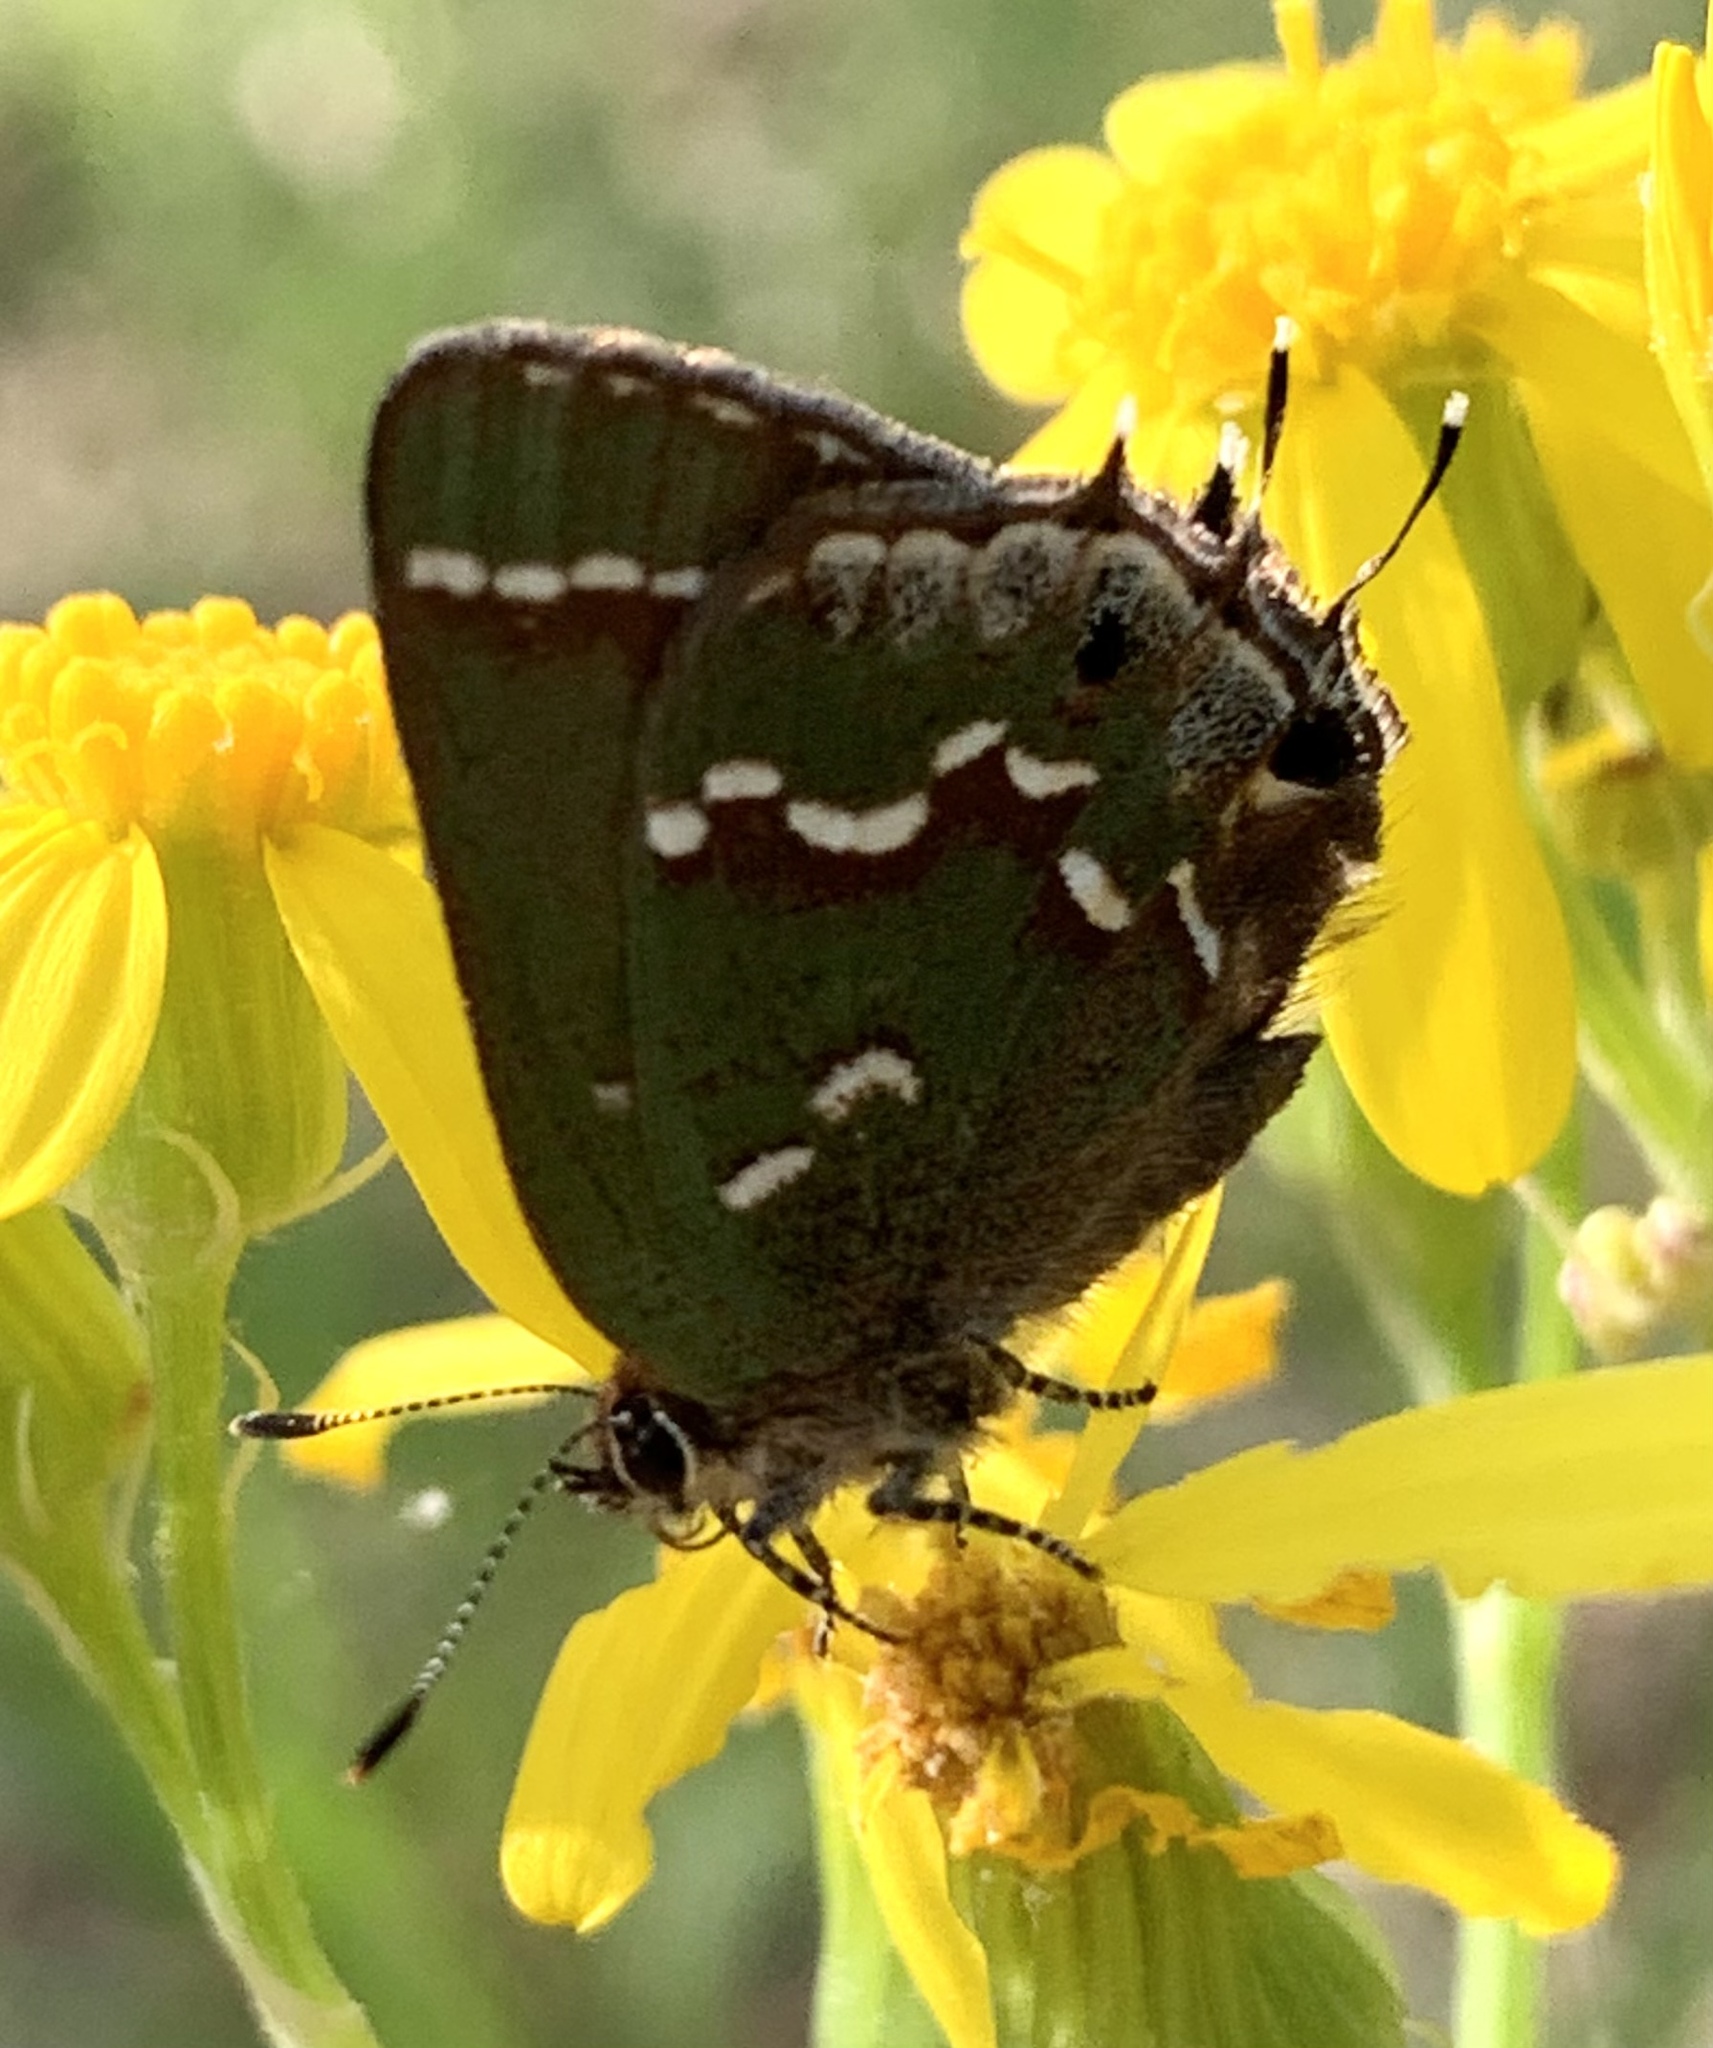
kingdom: Animalia
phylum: Arthropoda
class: Insecta
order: Lepidoptera
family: Lycaenidae
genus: Mitoura
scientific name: Mitoura gryneus
